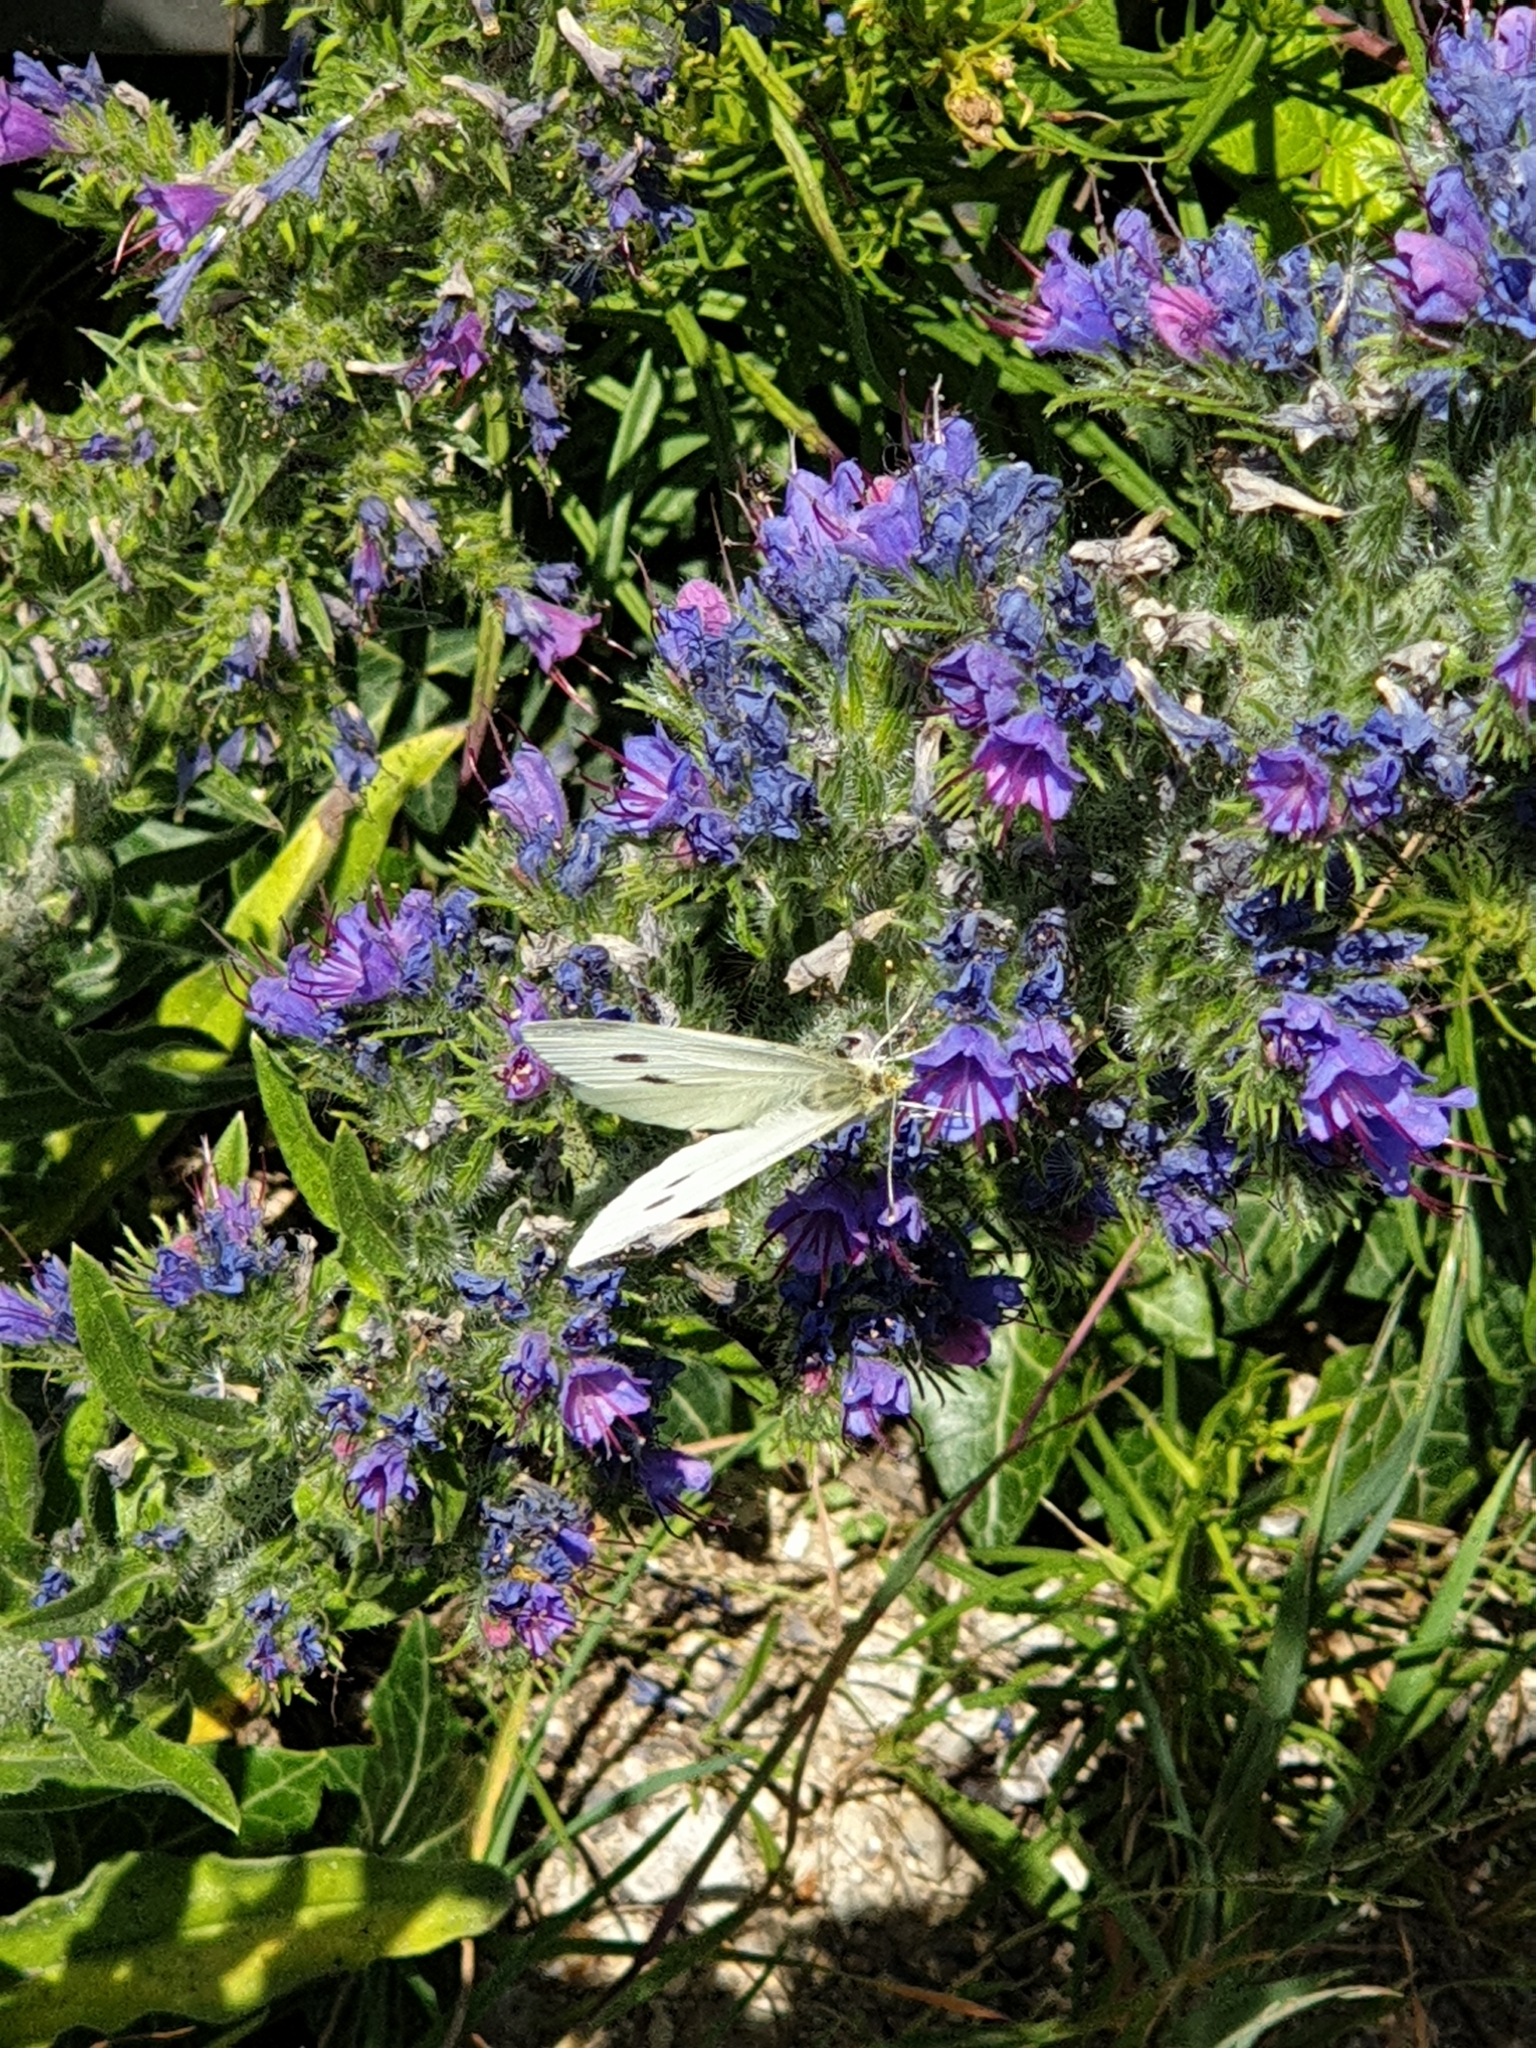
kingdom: Animalia
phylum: Arthropoda
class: Insecta
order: Lepidoptera
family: Pieridae
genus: Pieris
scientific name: Pieris rapae
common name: Small white
